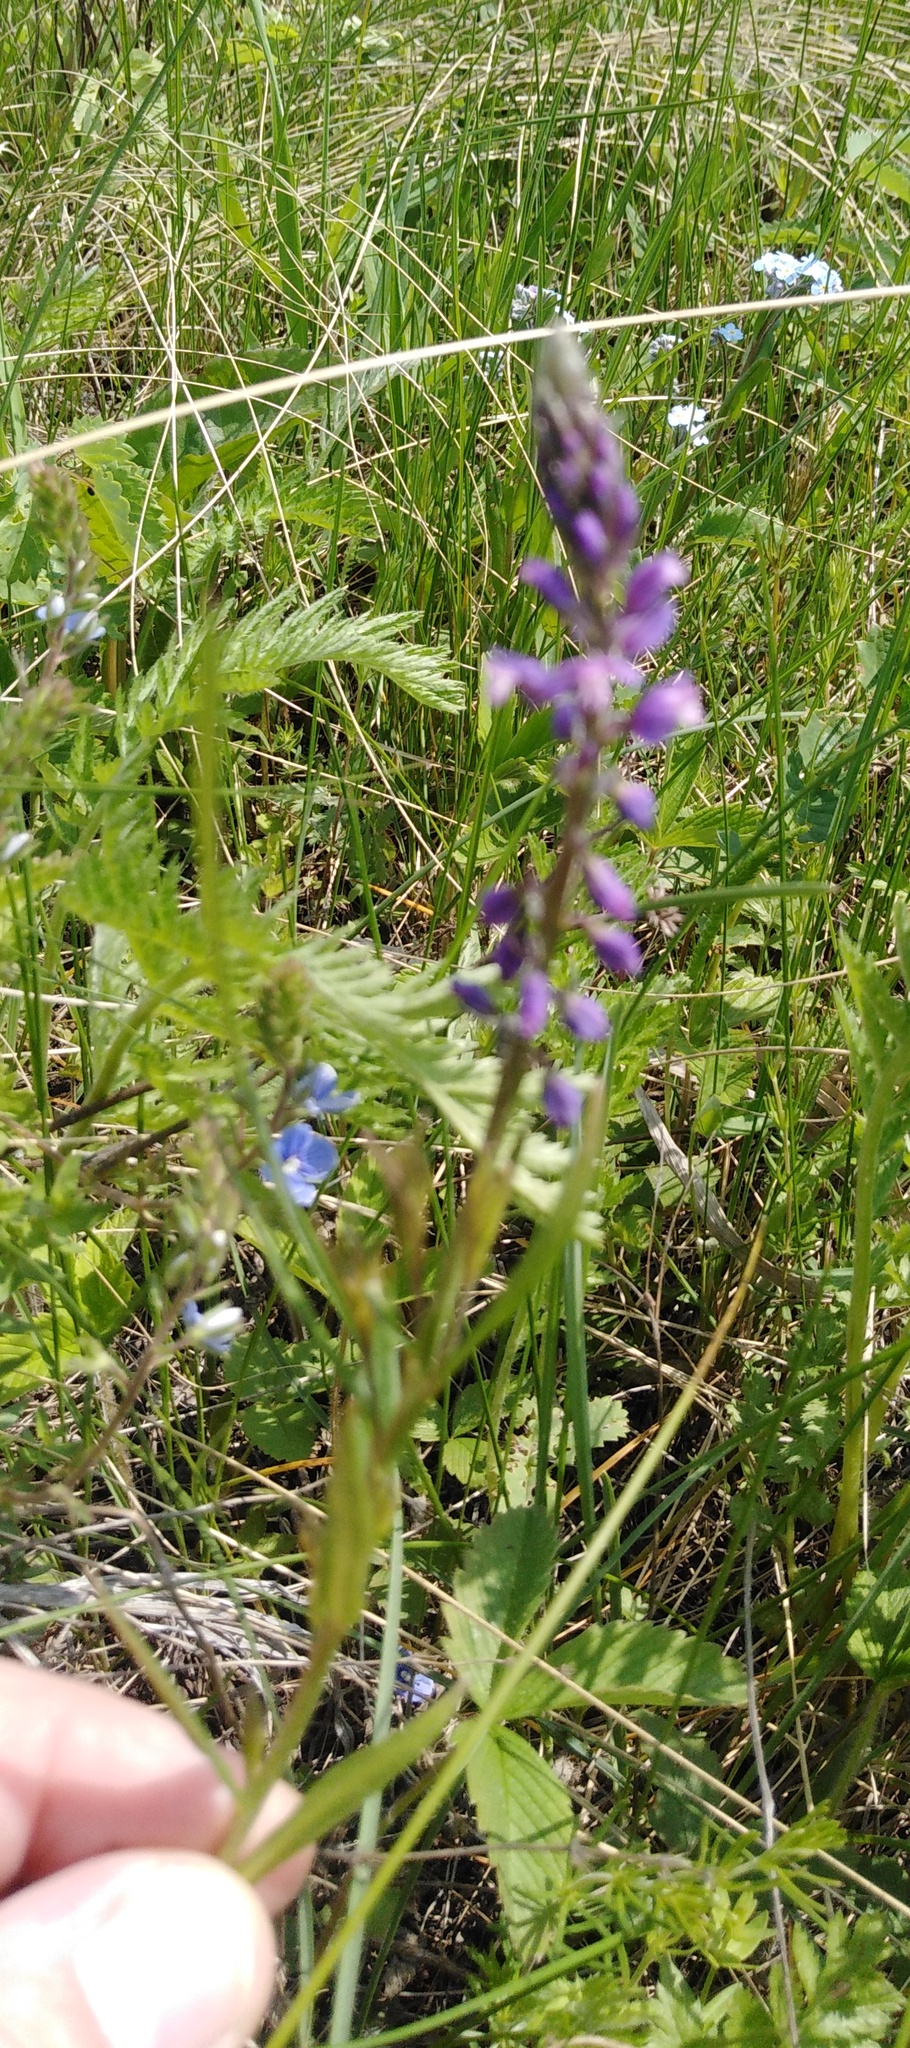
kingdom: Plantae
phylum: Tracheophyta
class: Magnoliopsida
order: Fabales
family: Polygalaceae
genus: Polygala
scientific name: Polygala comosa
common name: Tufted milkwort
